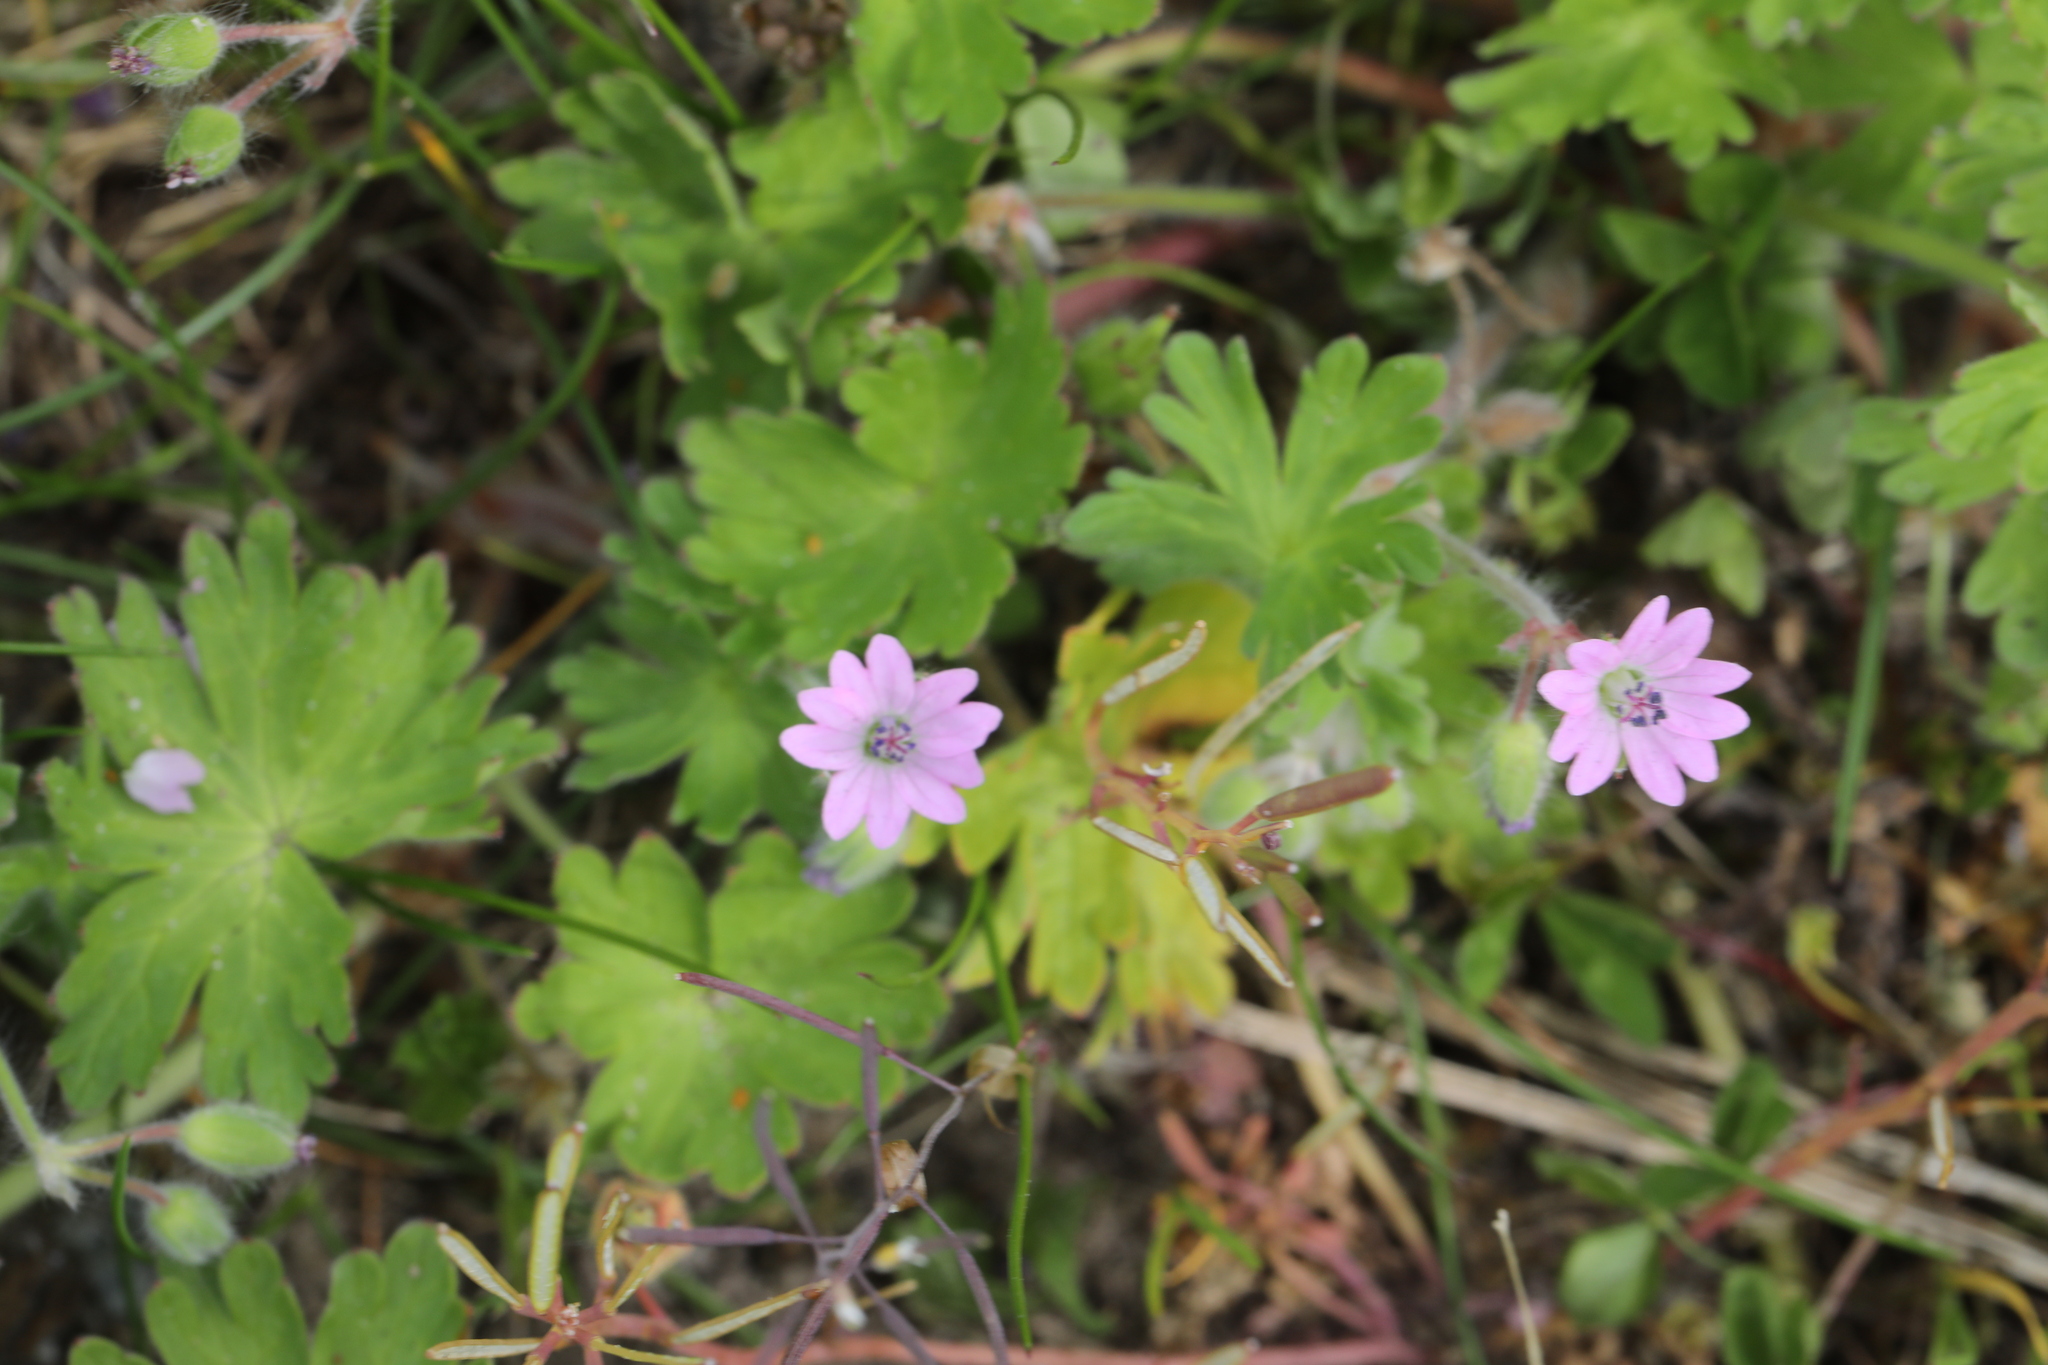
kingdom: Plantae
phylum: Tracheophyta
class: Magnoliopsida
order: Geraniales
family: Geraniaceae
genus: Geranium
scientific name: Geranium molle
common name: Dove's-foot crane's-bill
